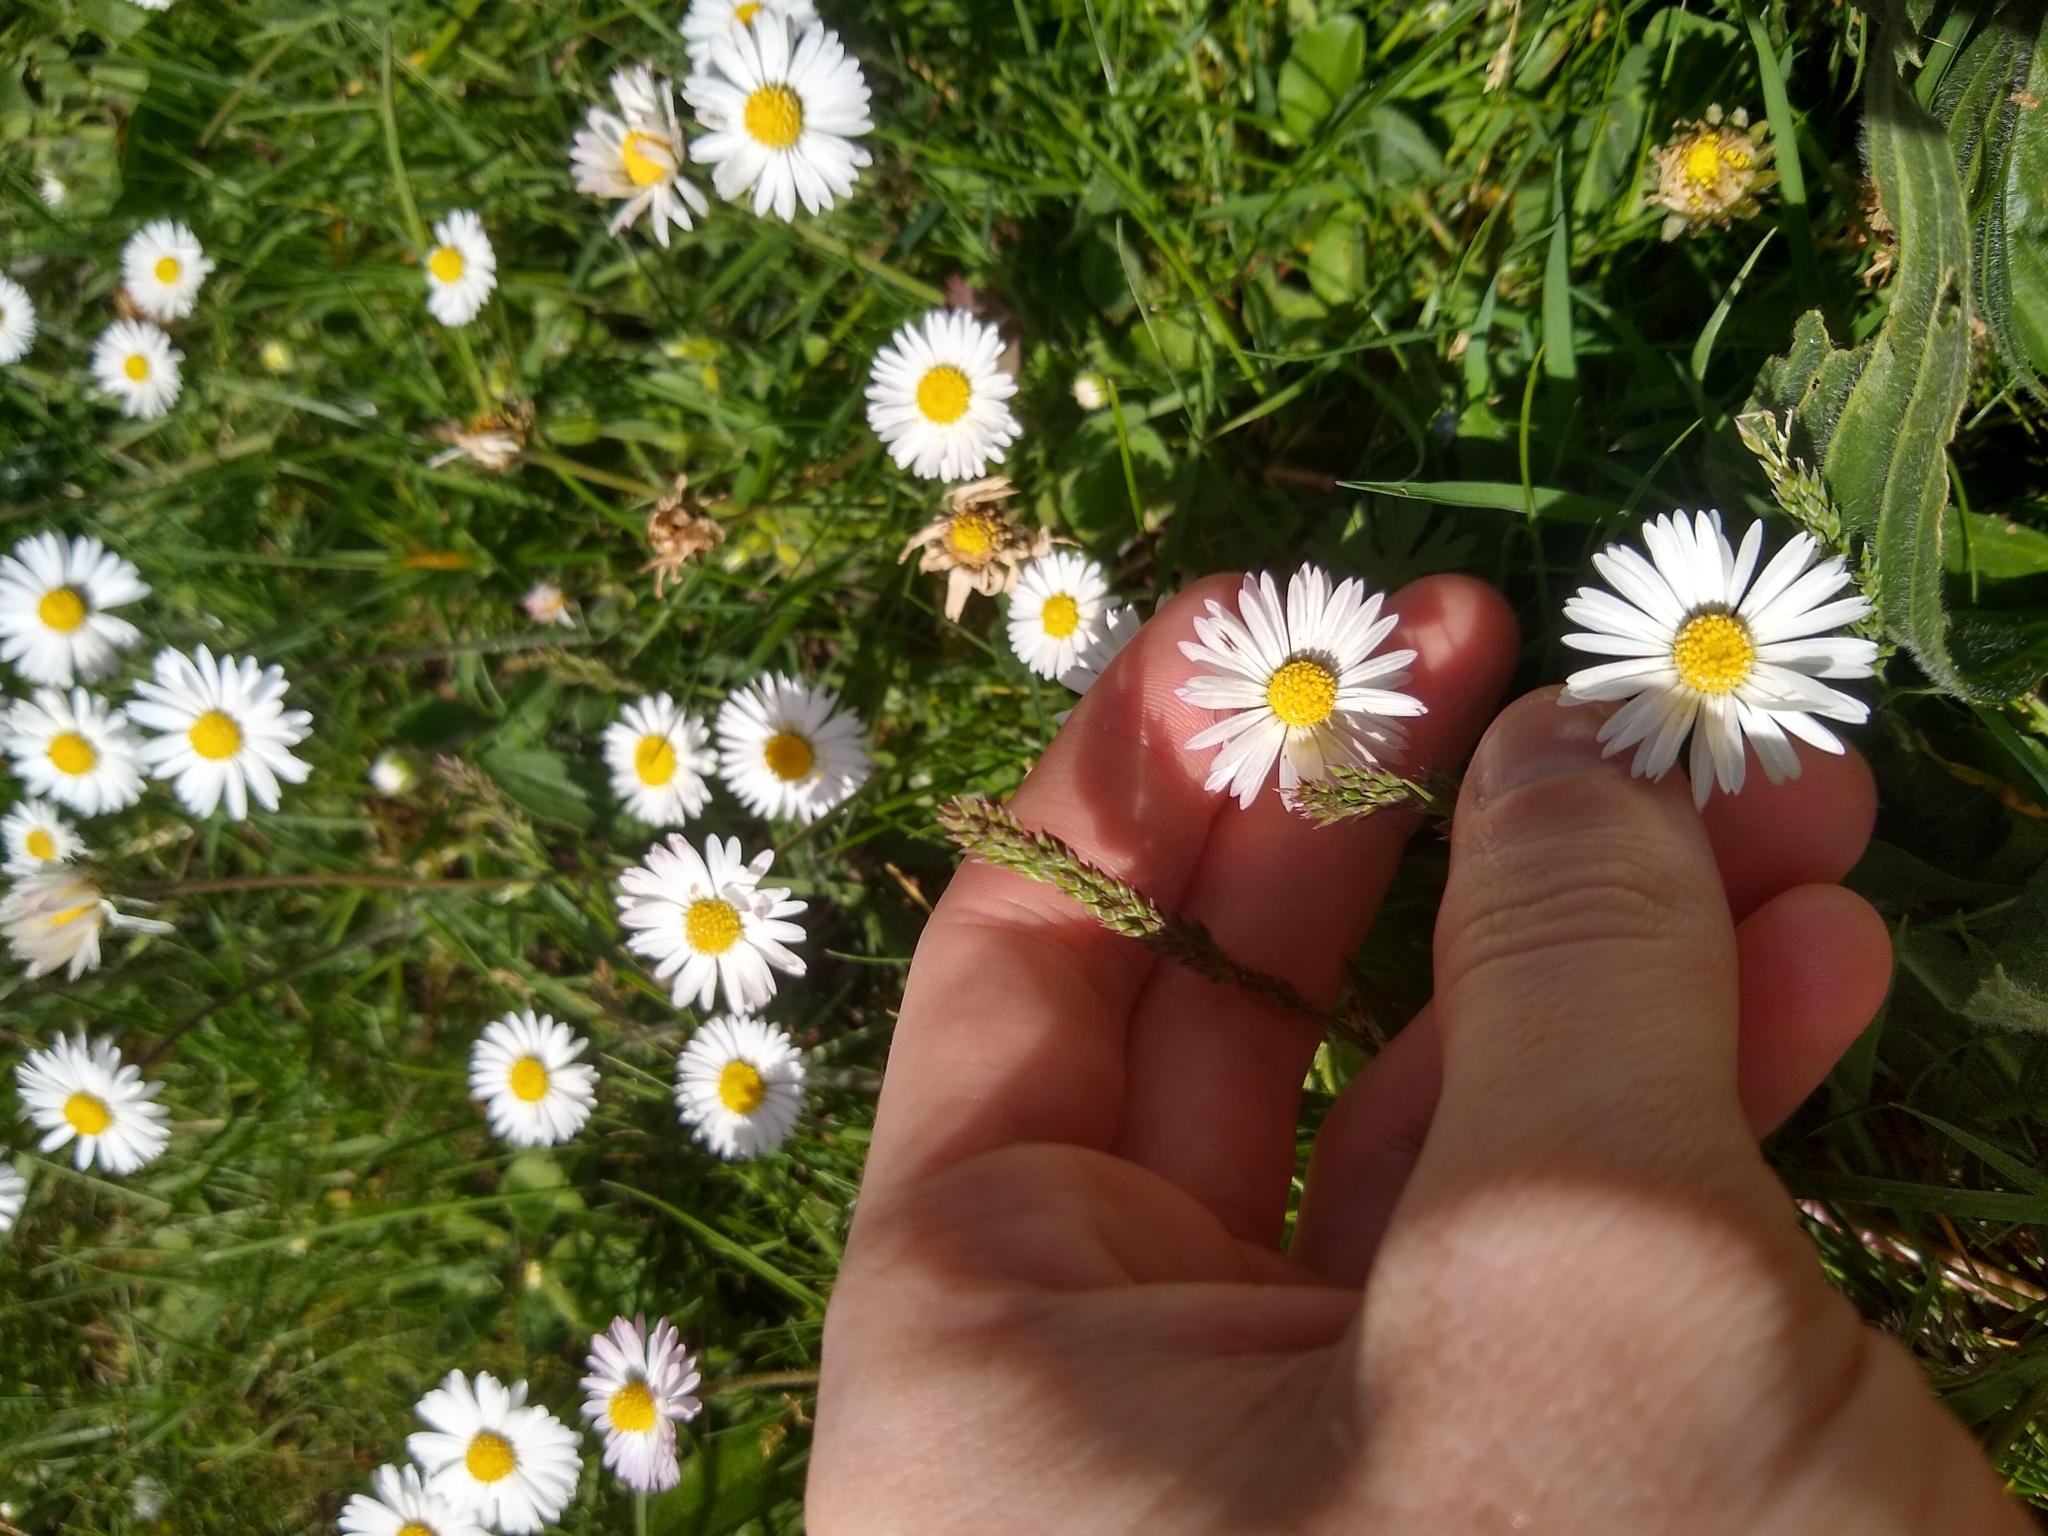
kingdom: Plantae
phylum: Tracheophyta
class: Magnoliopsida
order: Asterales
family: Asteraceae
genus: Bellis
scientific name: Bellis perennis
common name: Lawndaisy
